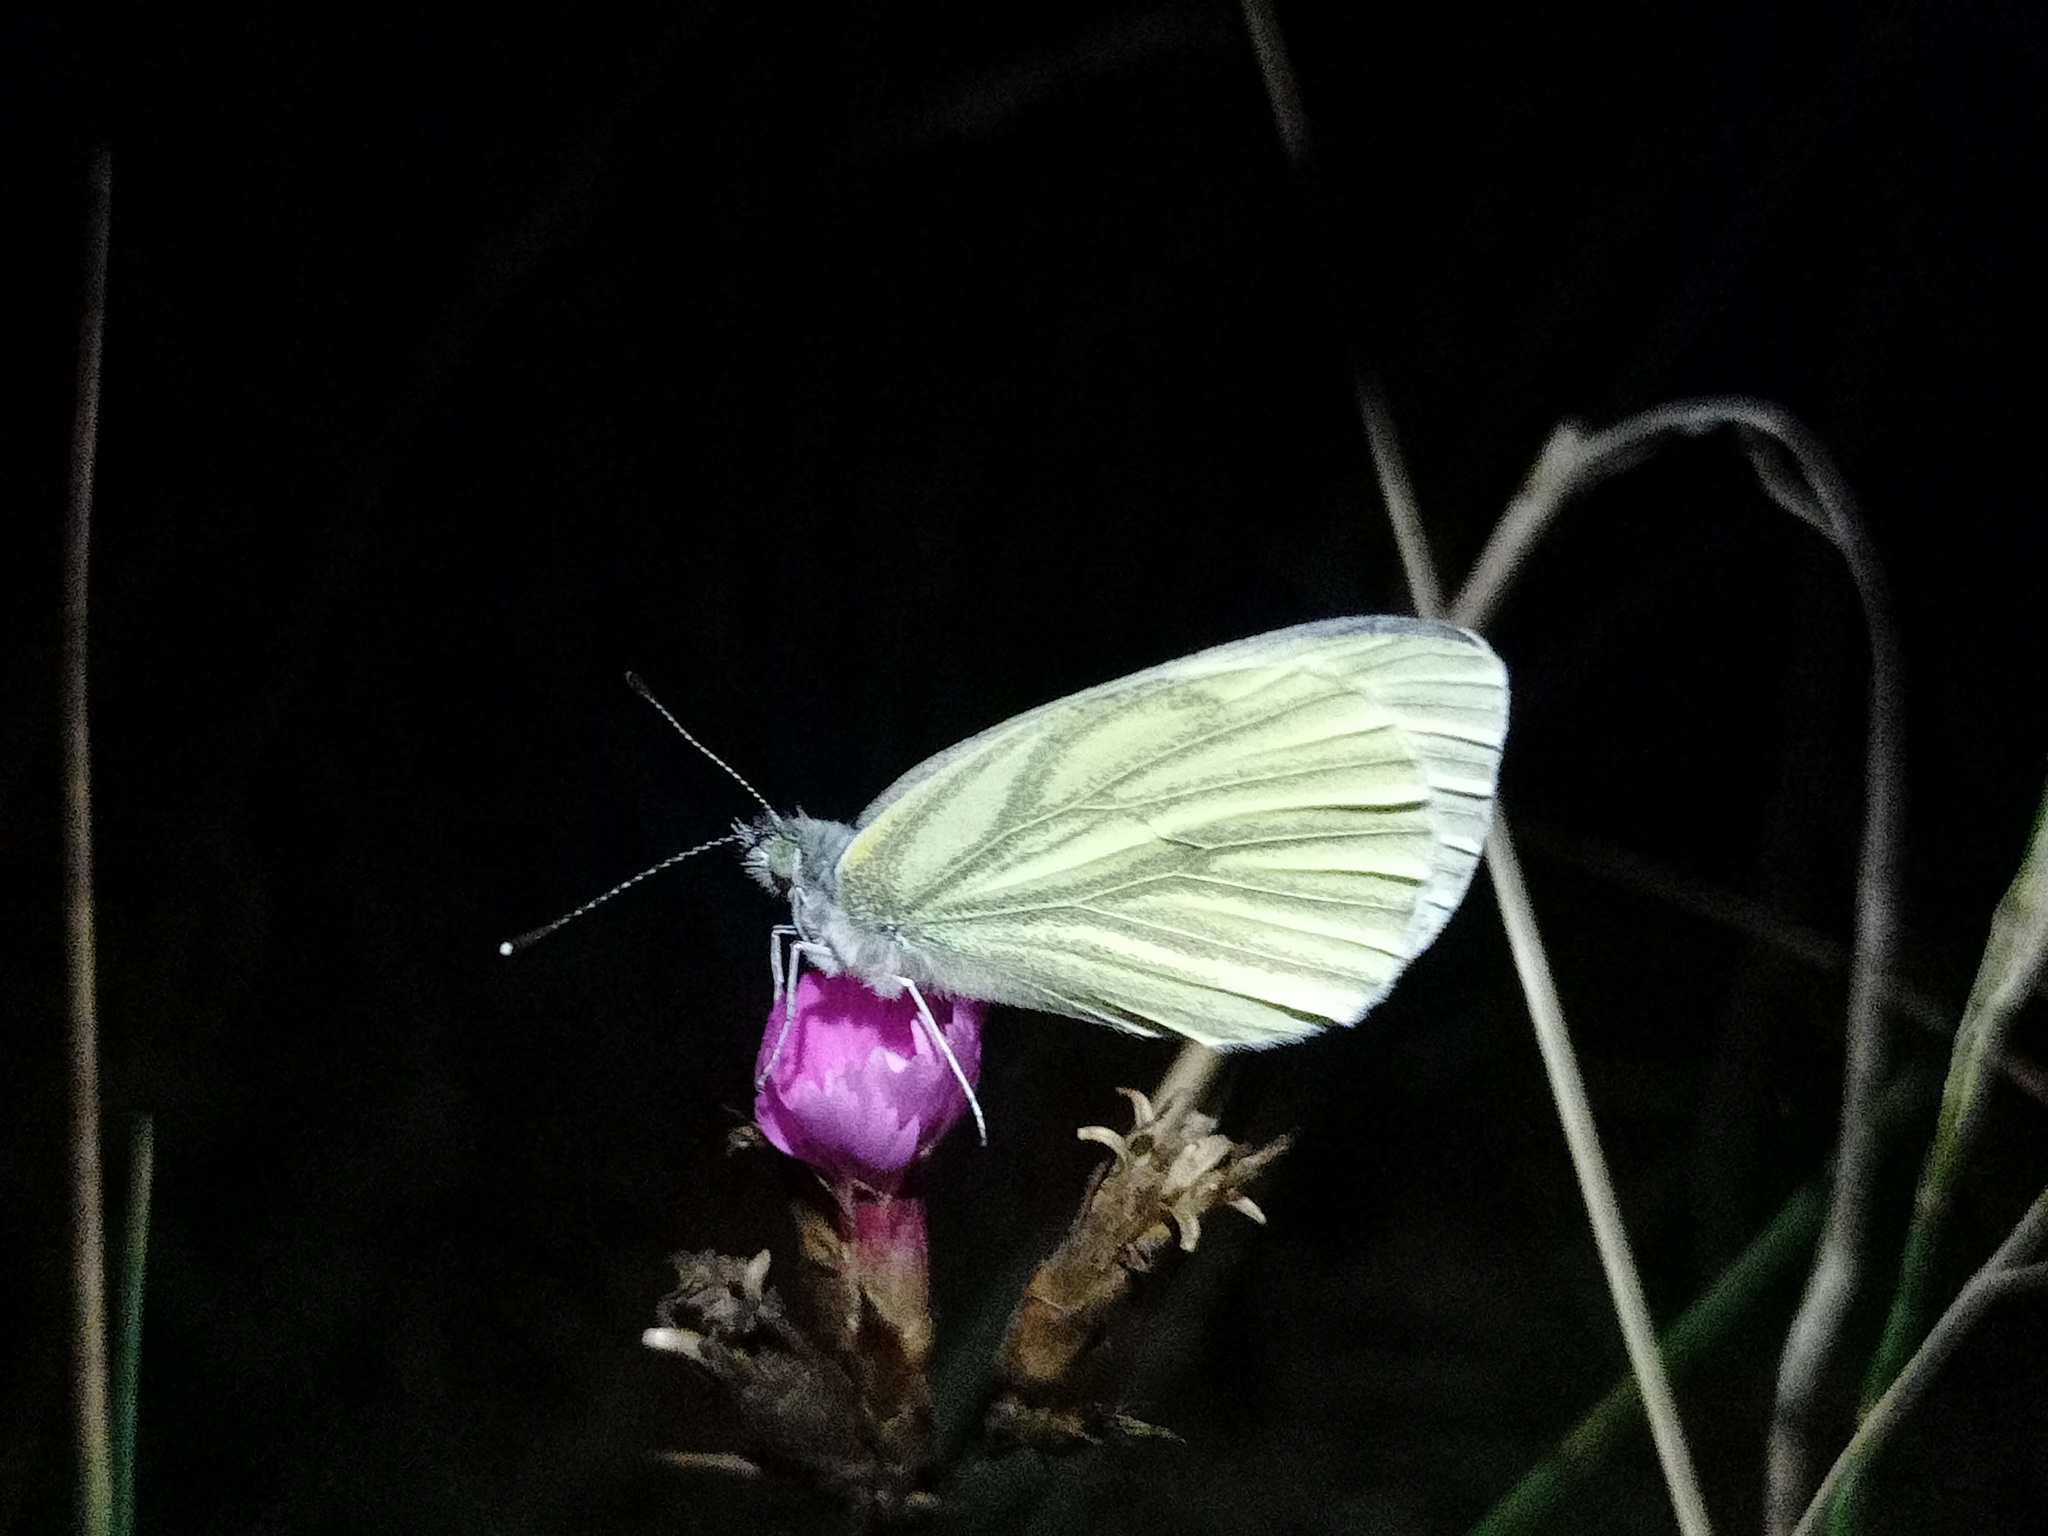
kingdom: Animalia
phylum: Arthropoda
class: Insecta
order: Lepidoptera
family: Pieridae
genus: Pieris
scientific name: Pieris napi
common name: Green-veined white
